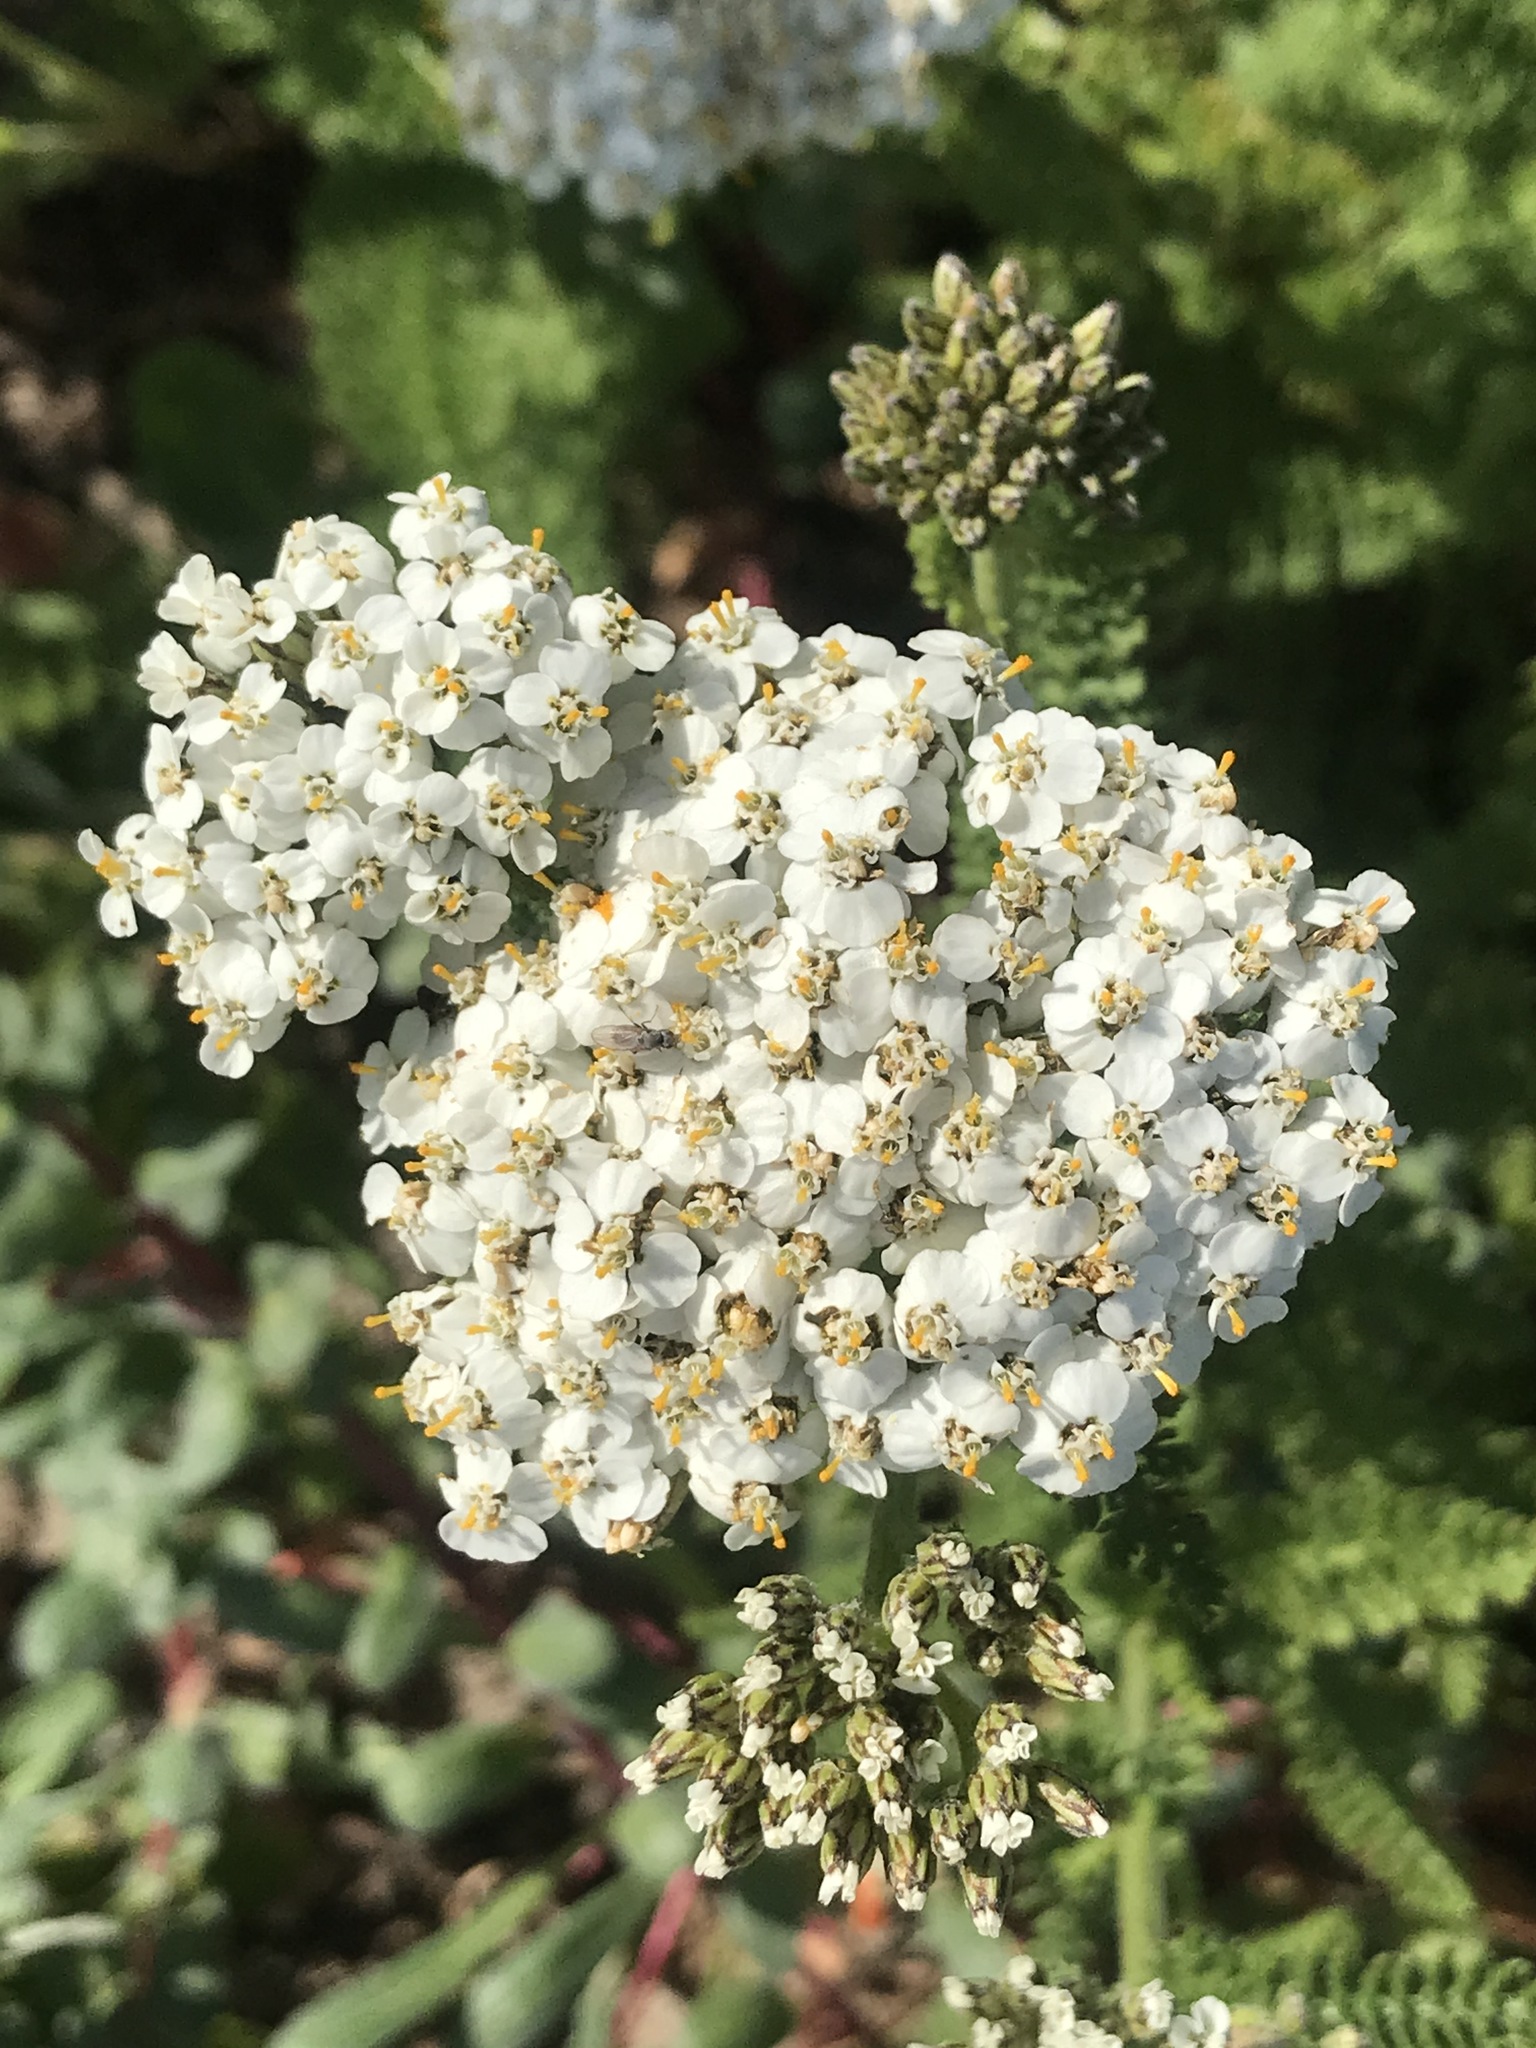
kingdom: Plantae
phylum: Tracheophyta
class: Magnoliopsida
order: Asterales
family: Asteraceae
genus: Achillea
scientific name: Achillea millefolium
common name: Yarrow
